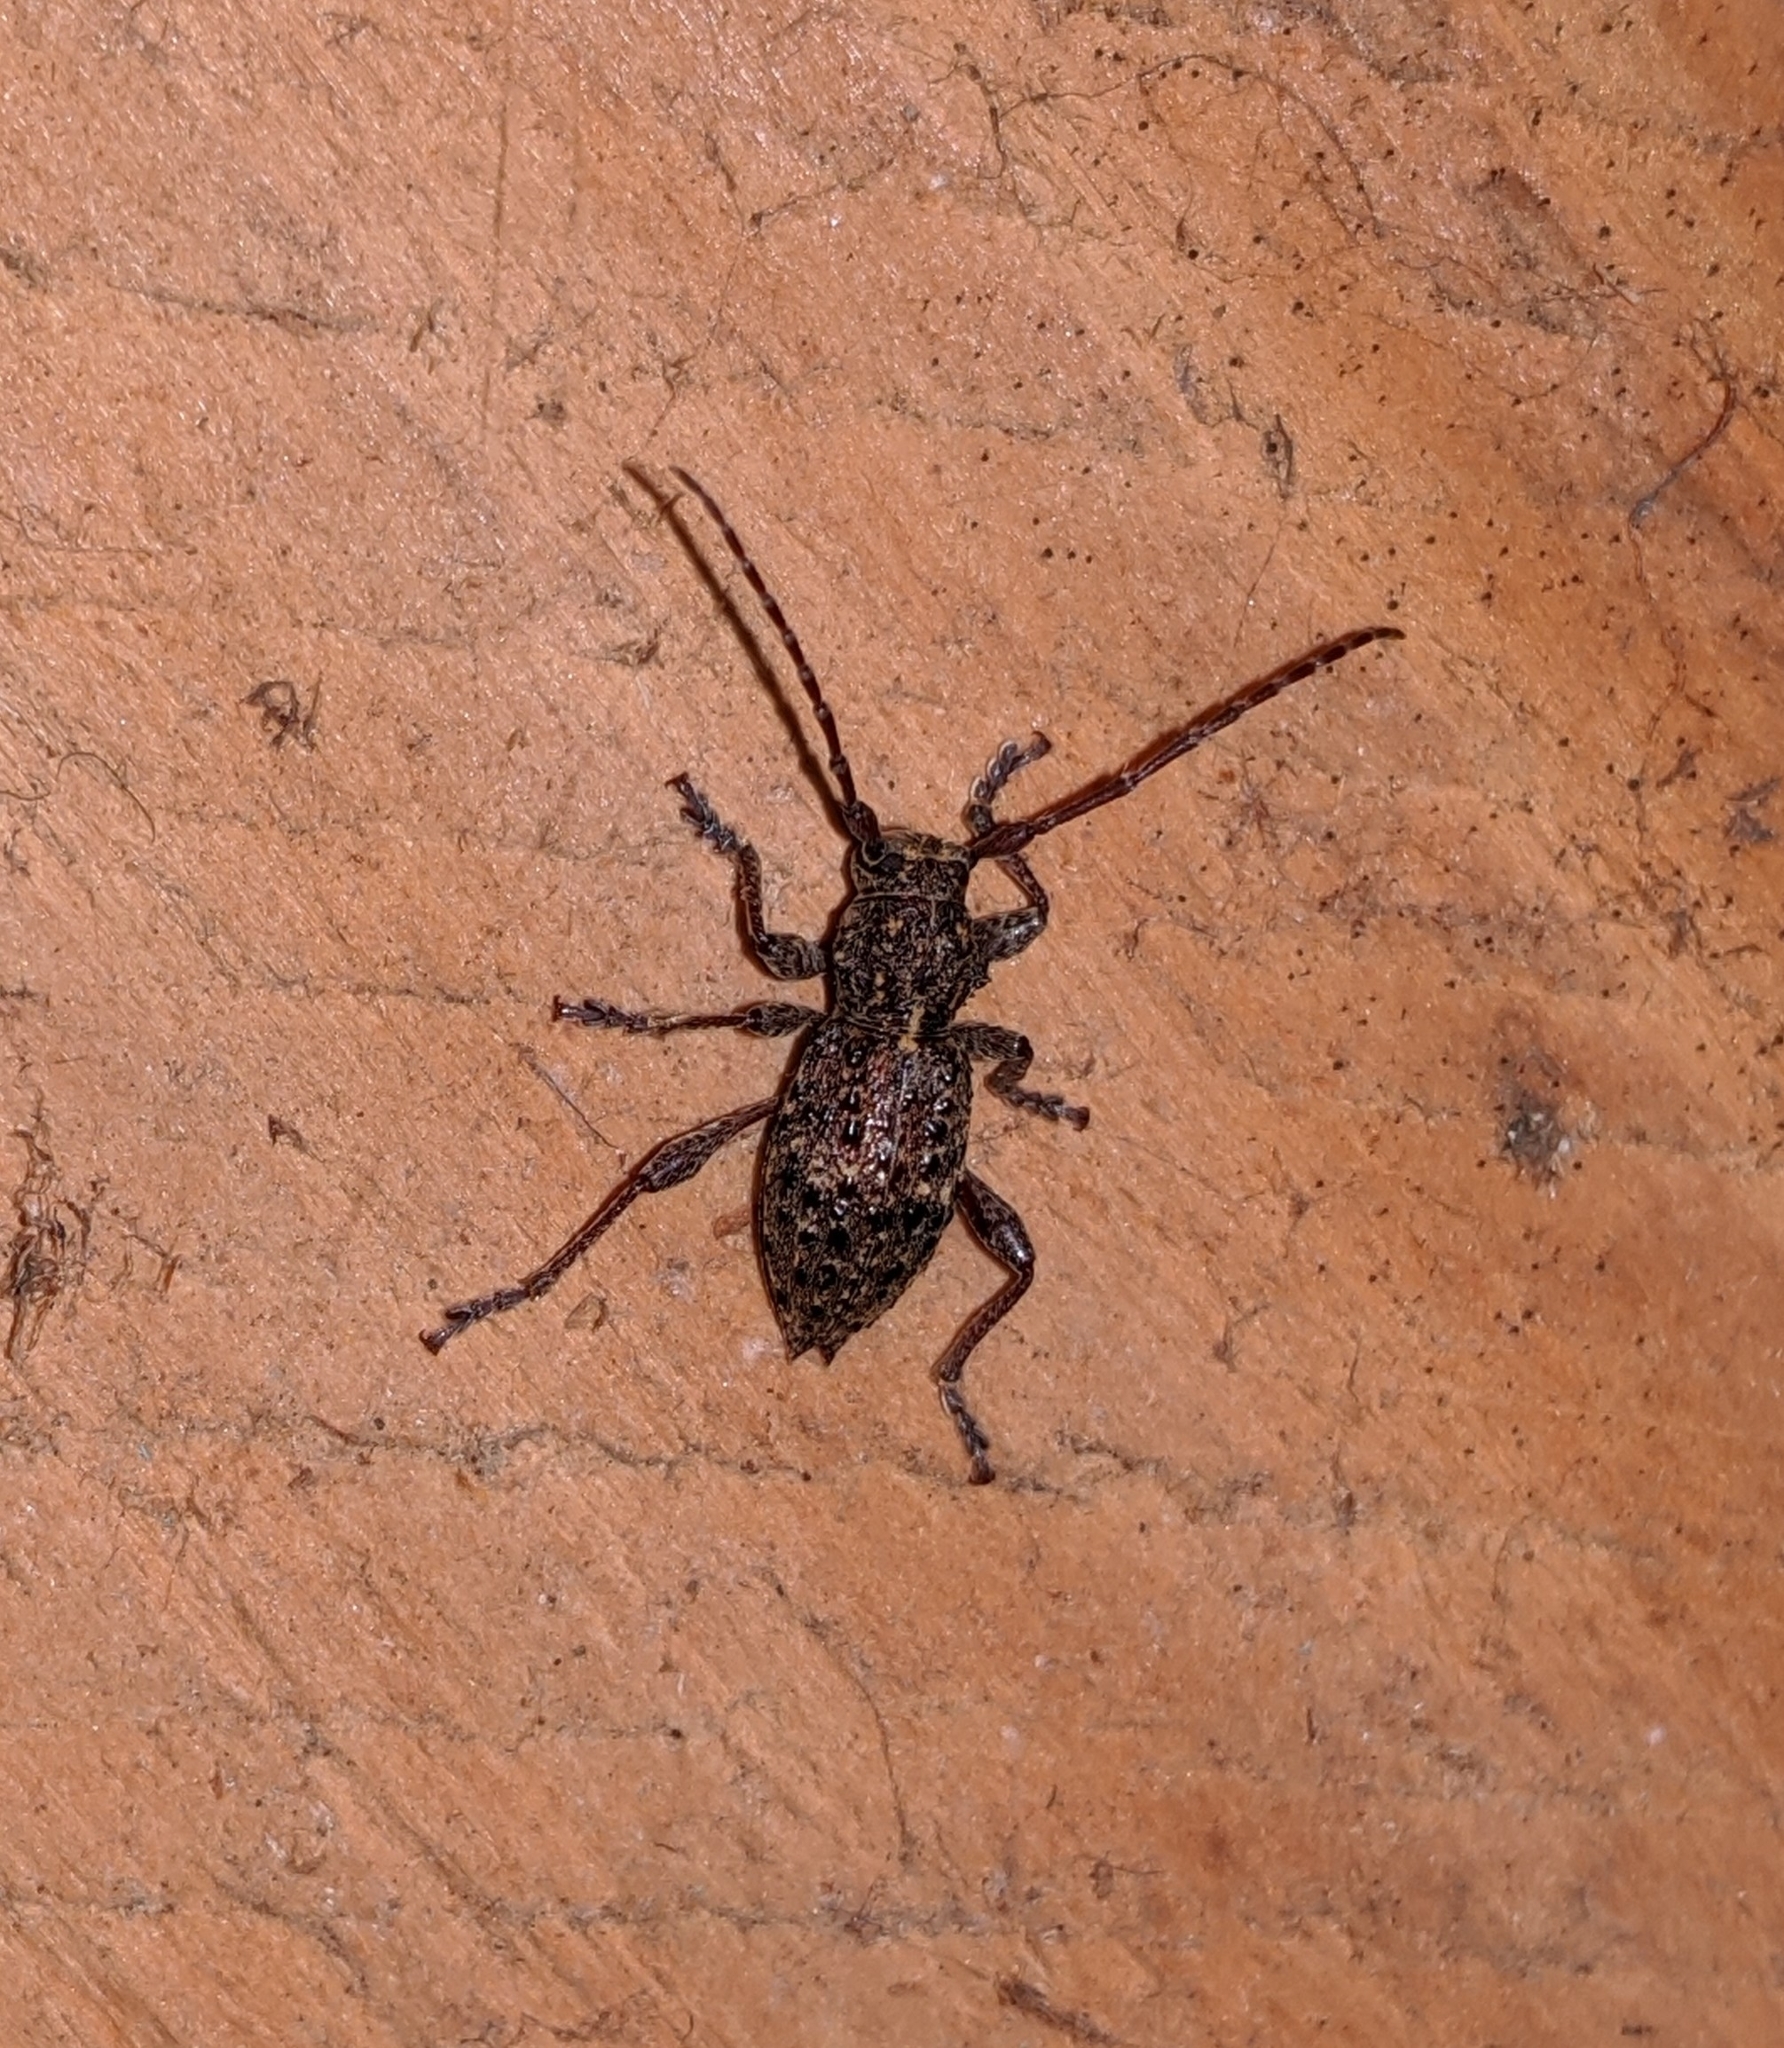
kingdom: Animalia
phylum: Arthropoda
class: Insecta
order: Coleoptera
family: Cerambycidae
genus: Plectrura
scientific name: Plectrura spinicauda
